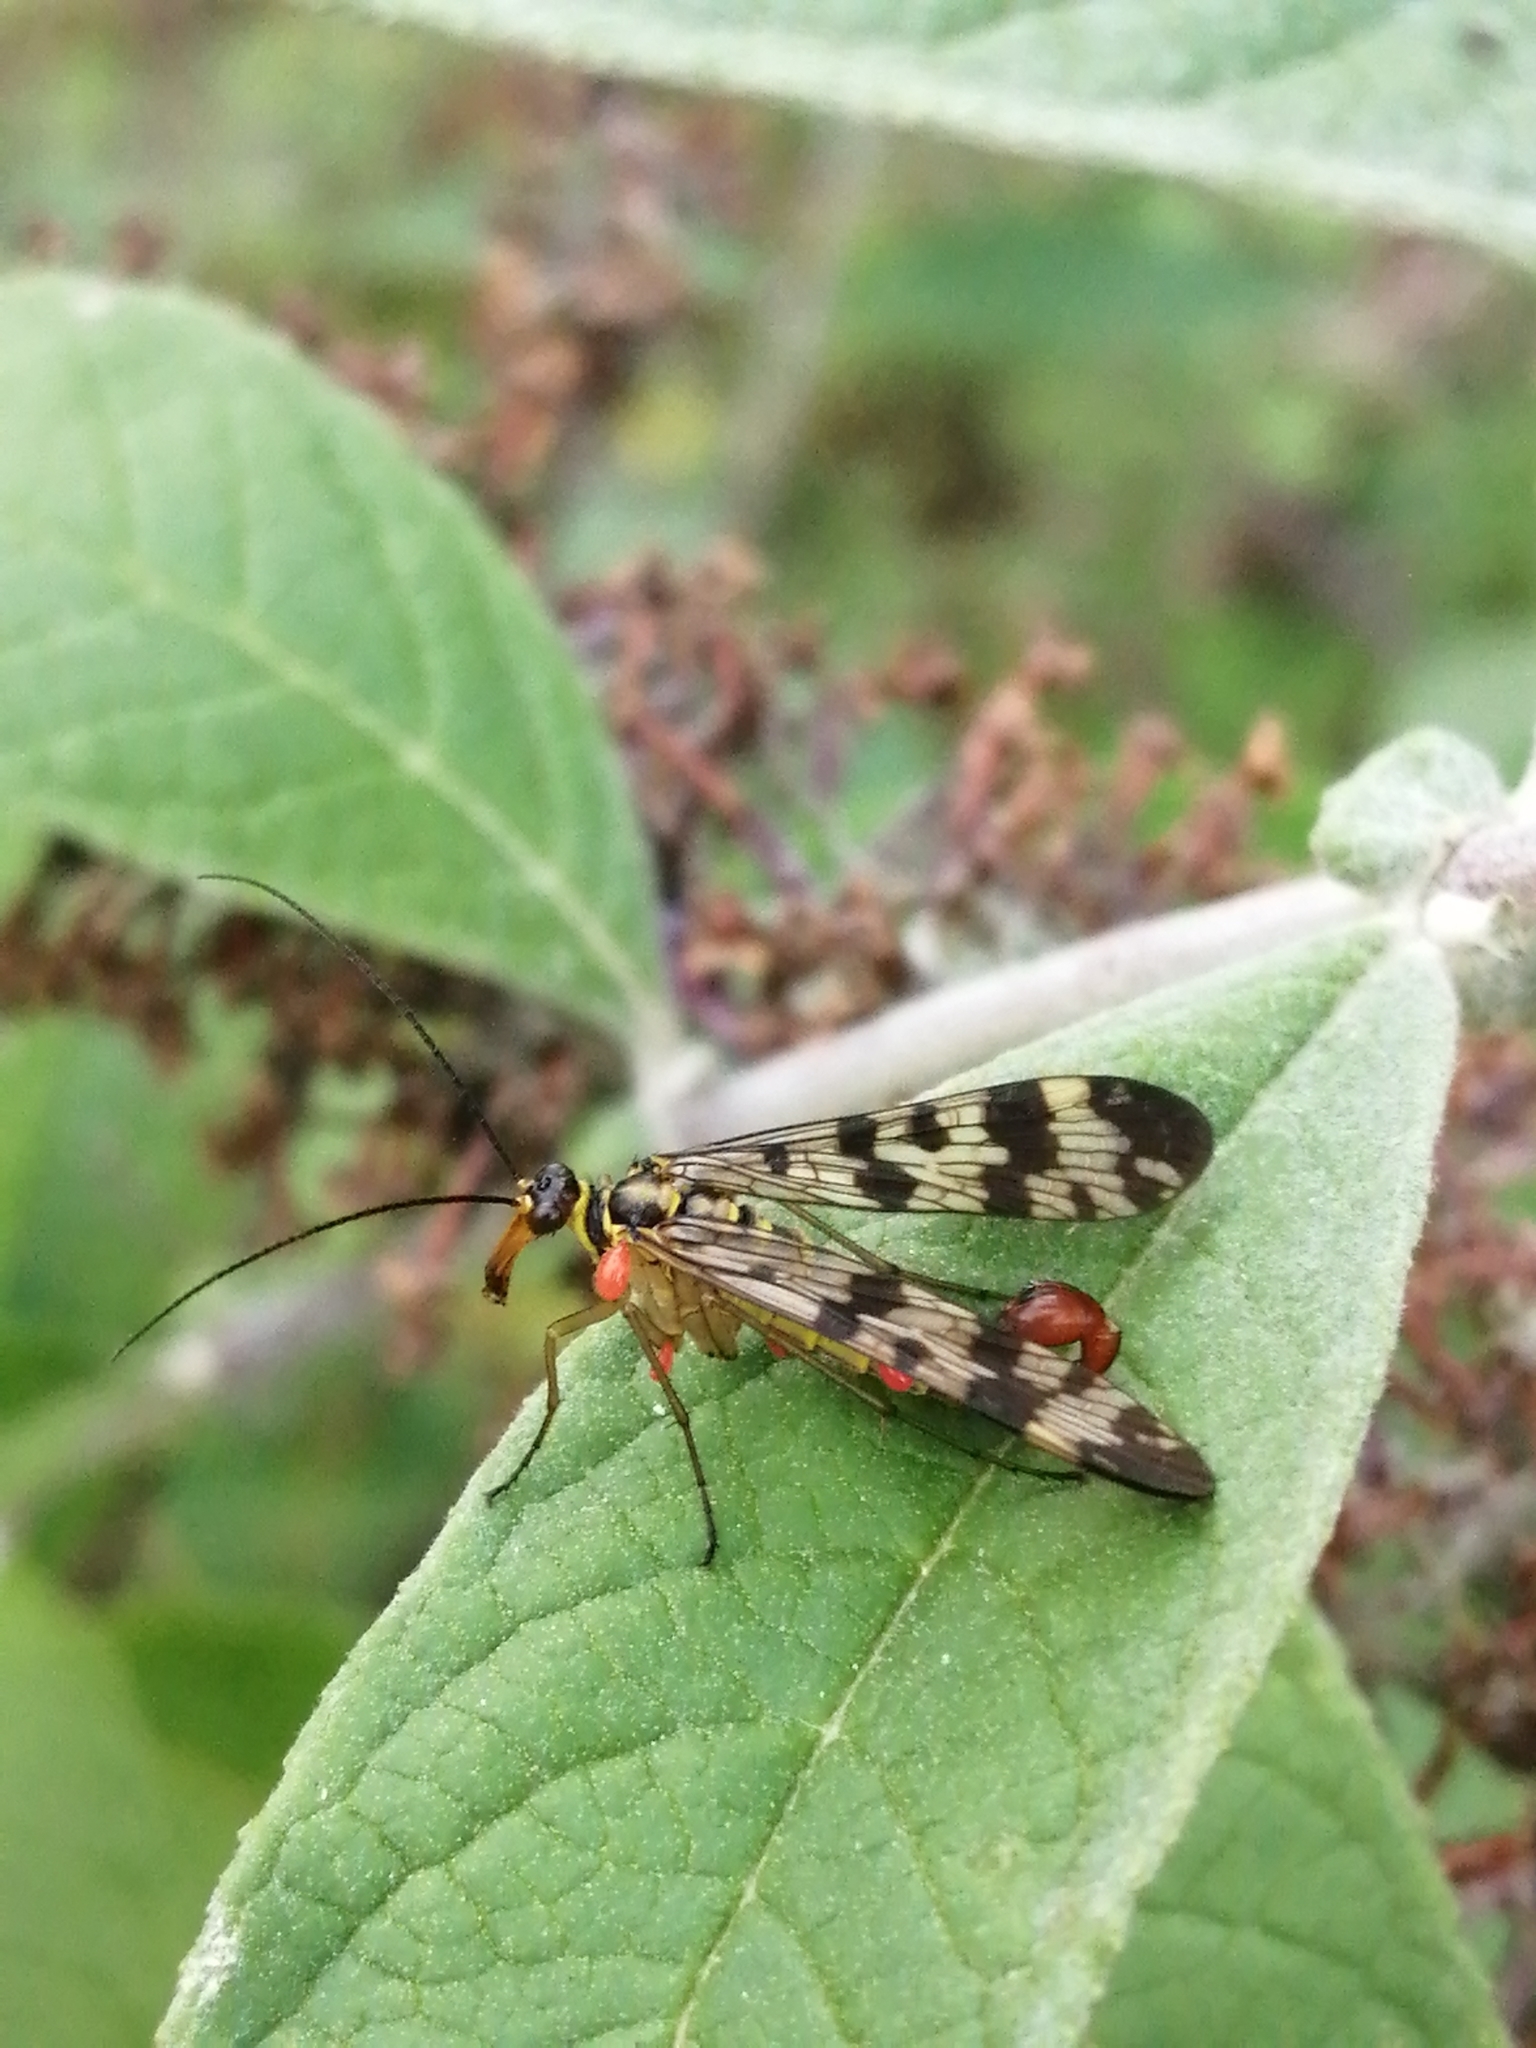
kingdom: Animalia
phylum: Arthropoda
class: Insecta
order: Mecoptera
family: Panorpidae
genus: Panorpa
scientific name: Panorpa communis
